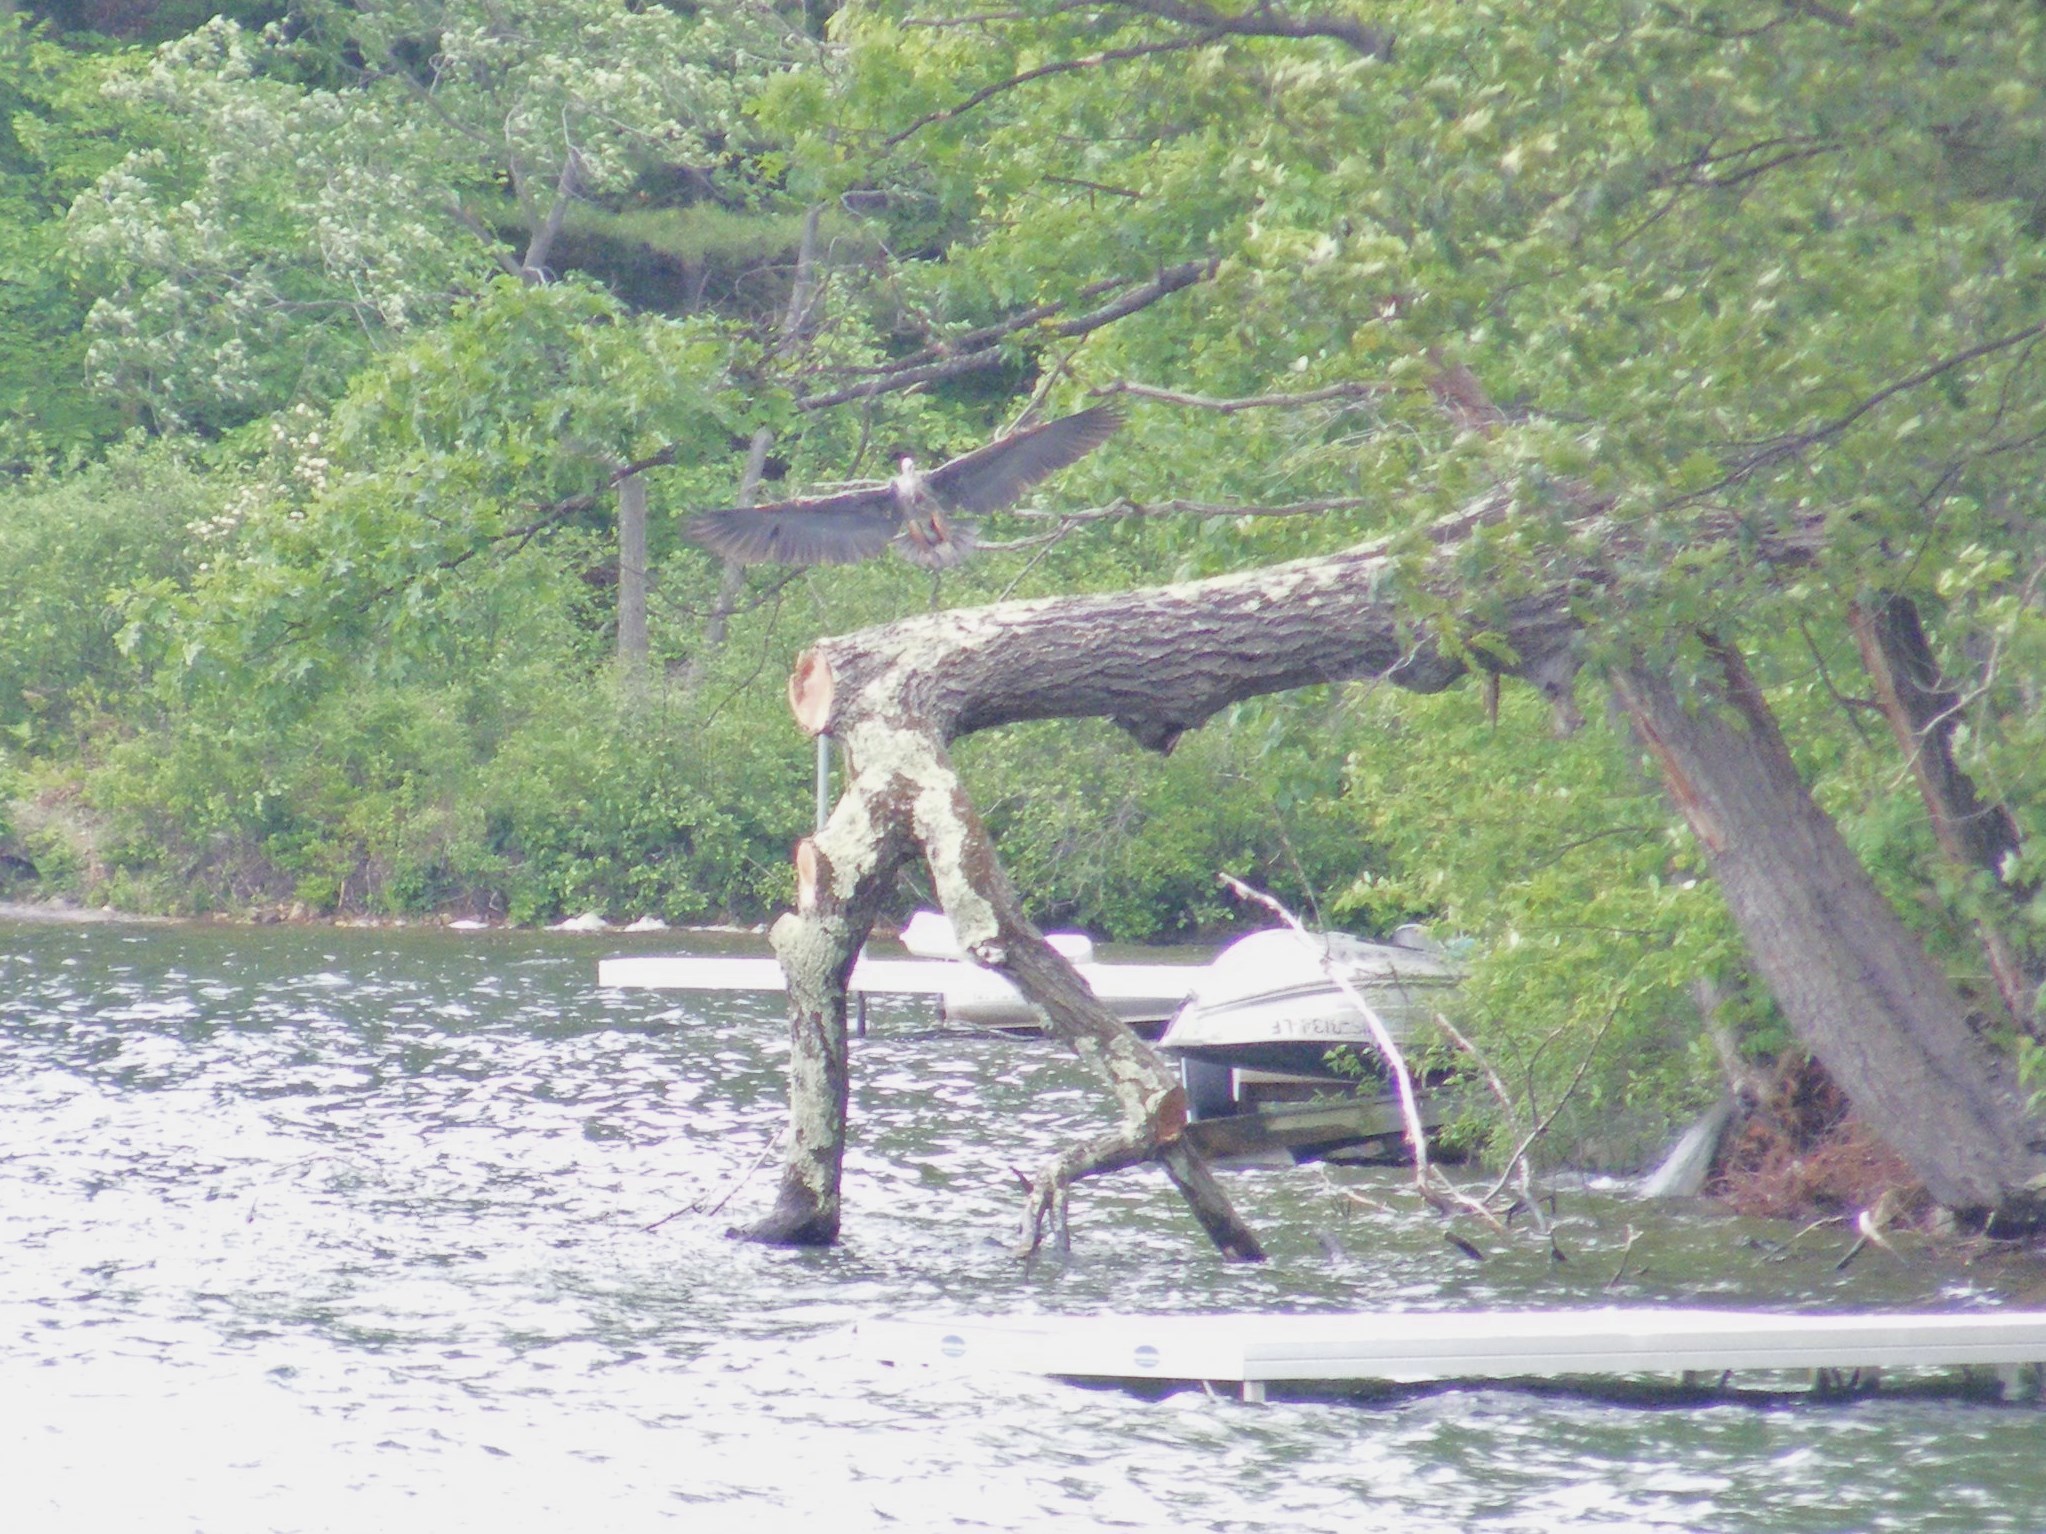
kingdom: Animalia
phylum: Chordata
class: Aves
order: Pelecaniformes
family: Ardeidae
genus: Ardea
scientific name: Ardea herodias
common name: Great blue heron
